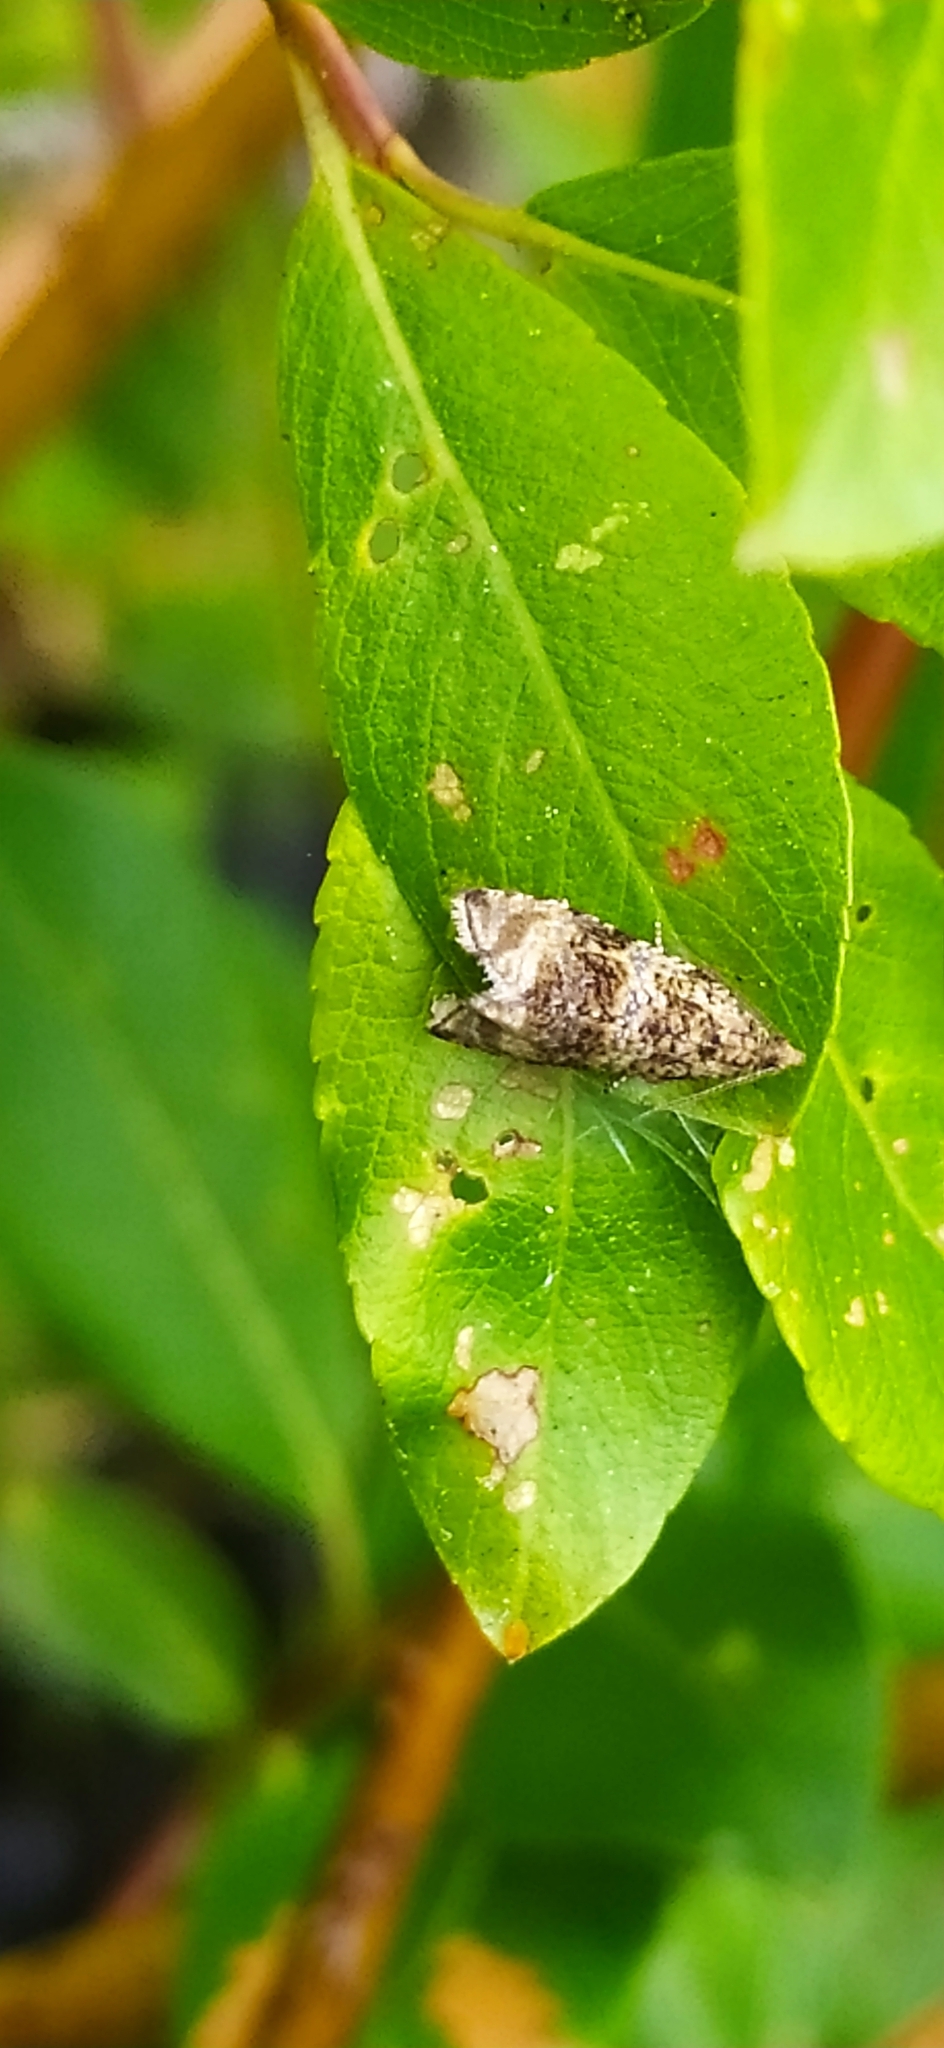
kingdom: Animalia
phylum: Arthropoda
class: Insecta
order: Lepidoptera
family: Tortricidae
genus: Syricoris
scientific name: Syricoris lacunana
